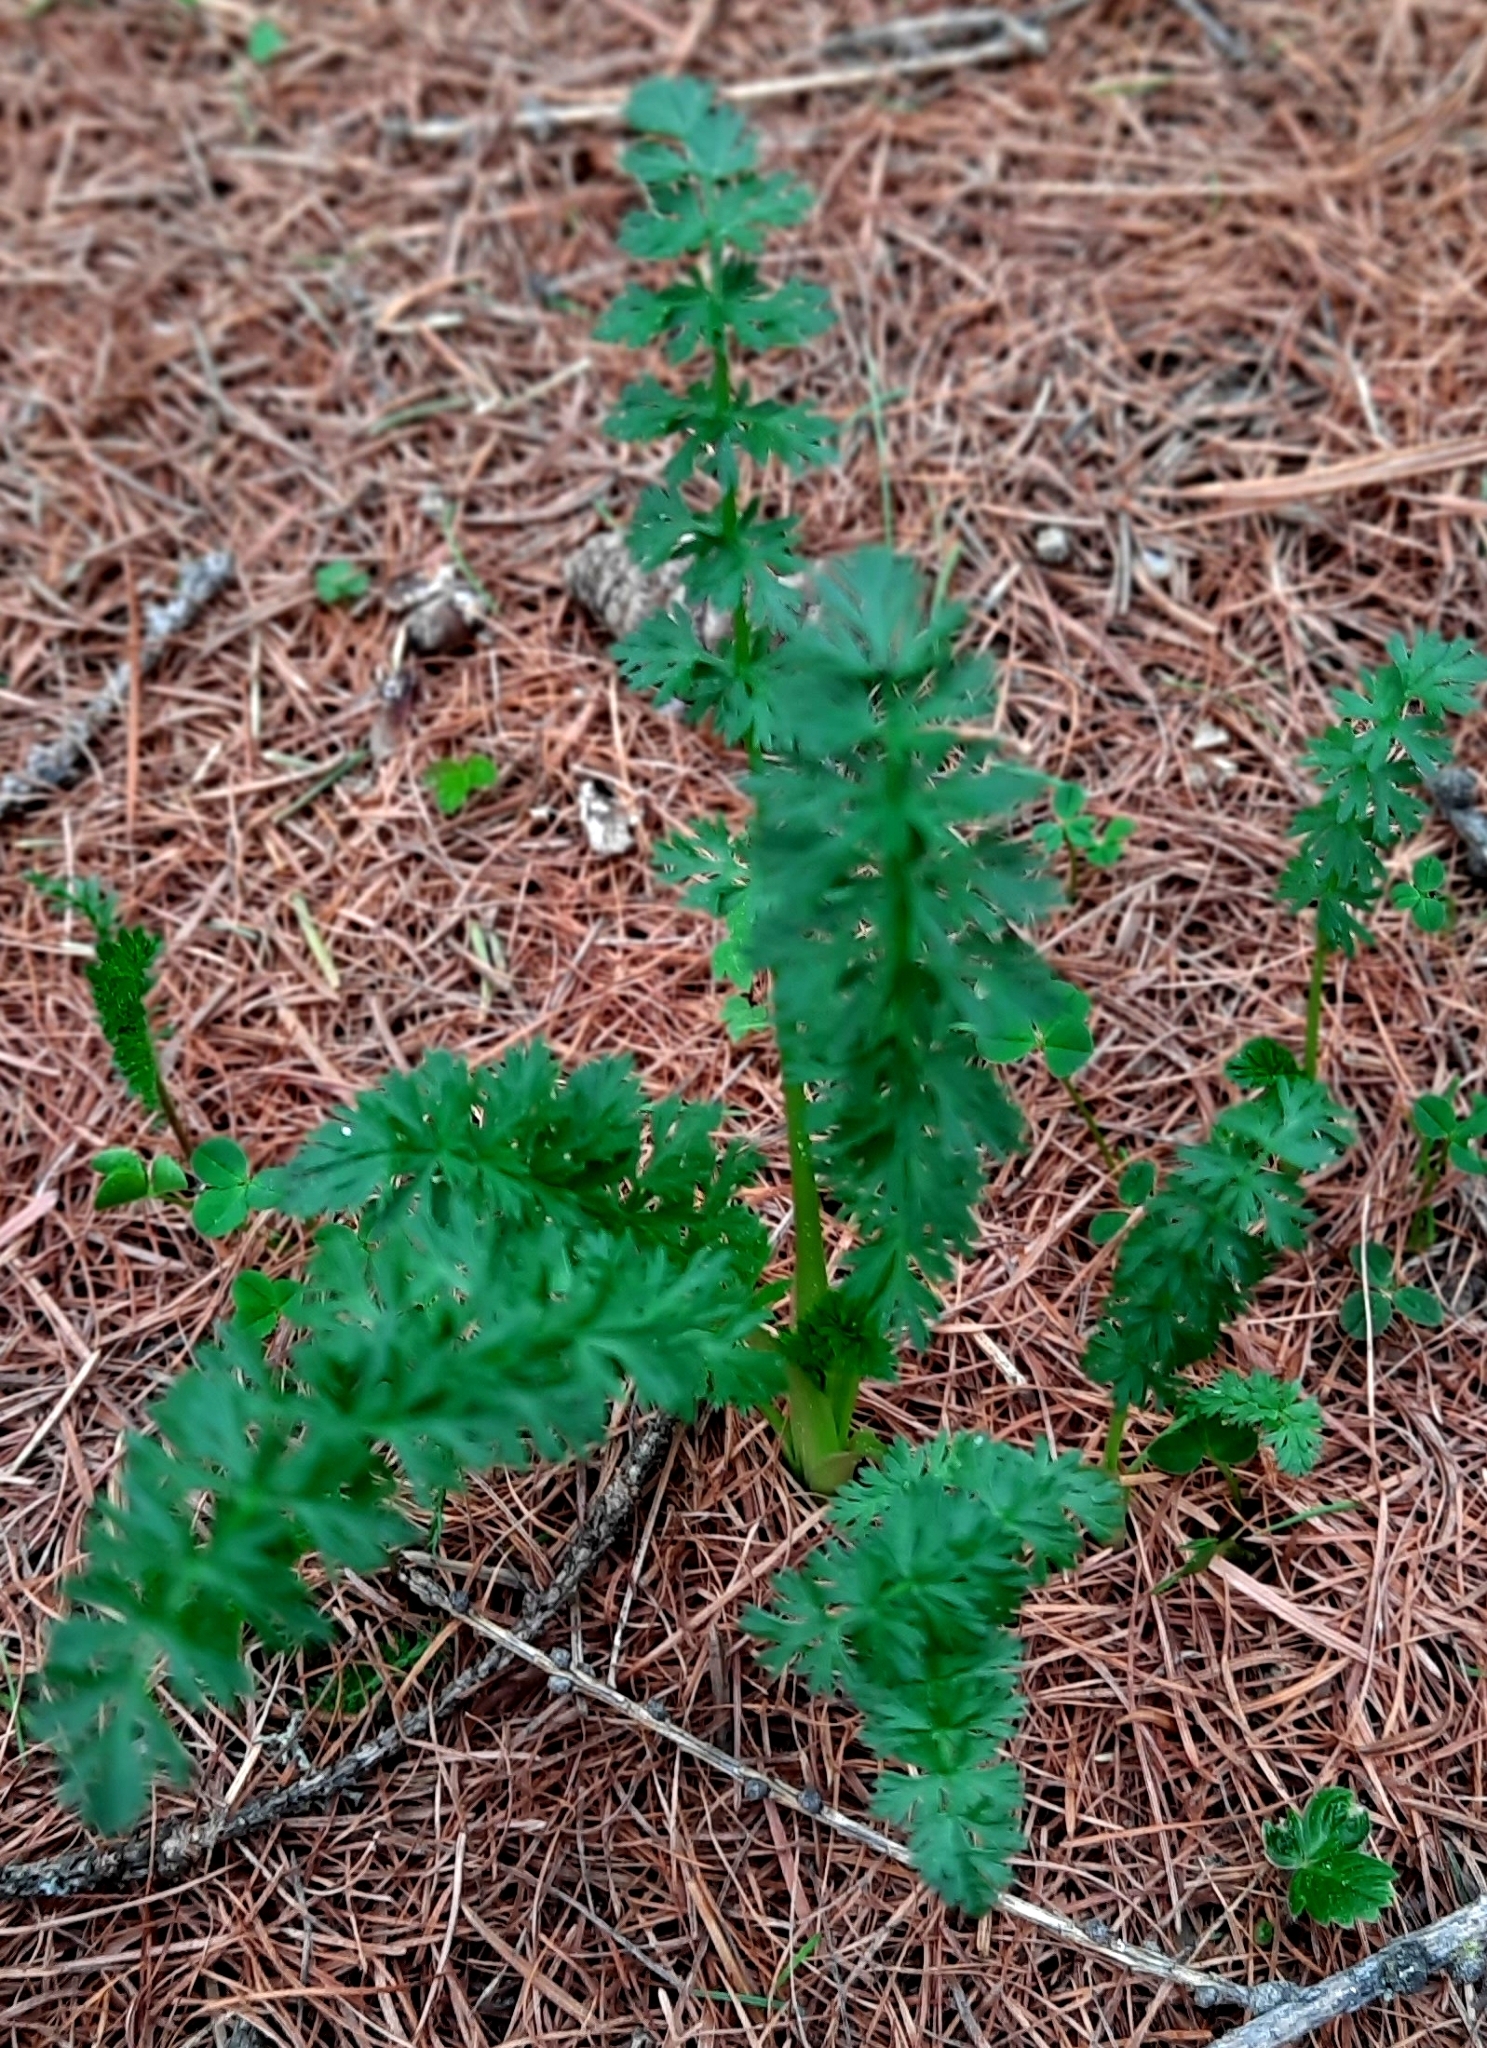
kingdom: Plantae
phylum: Tracheophyta
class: Magnoliopsida
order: Apiales
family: Apiaceae
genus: Carum
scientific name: Carum carvi
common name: Caraway
